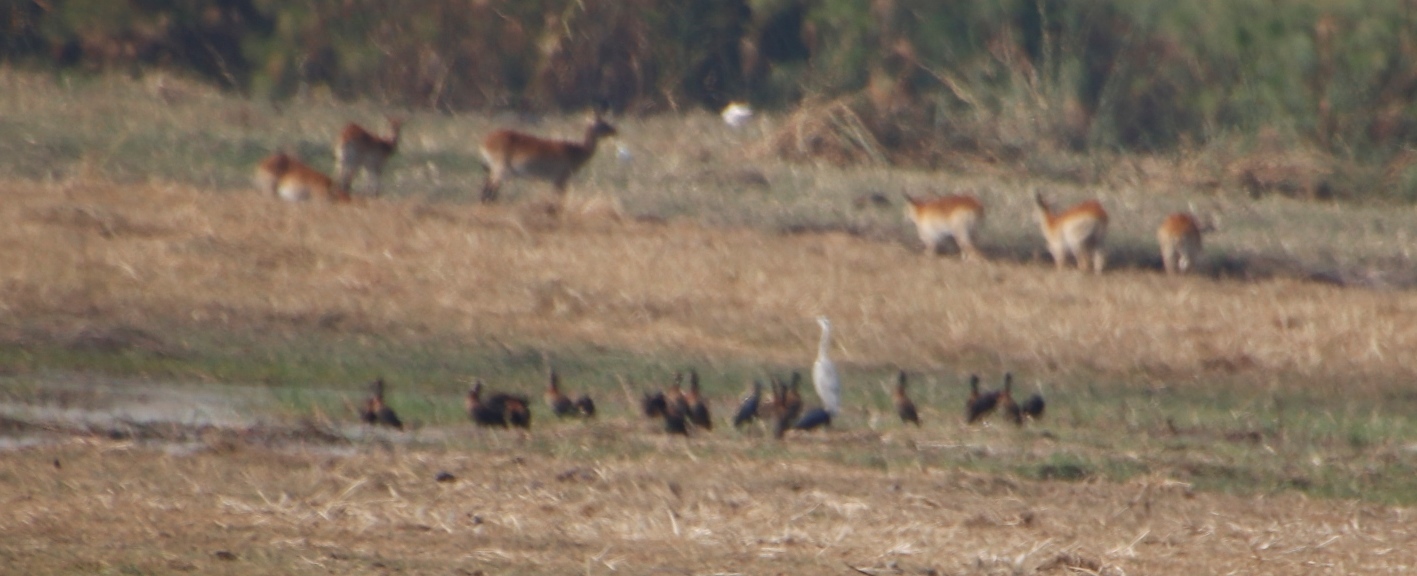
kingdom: Animalia
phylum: Chordata
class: Aves
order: Anseriformes
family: Anatidae
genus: Dendrocygna
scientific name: Dendrocygna viduata
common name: White-faced whistling duck
